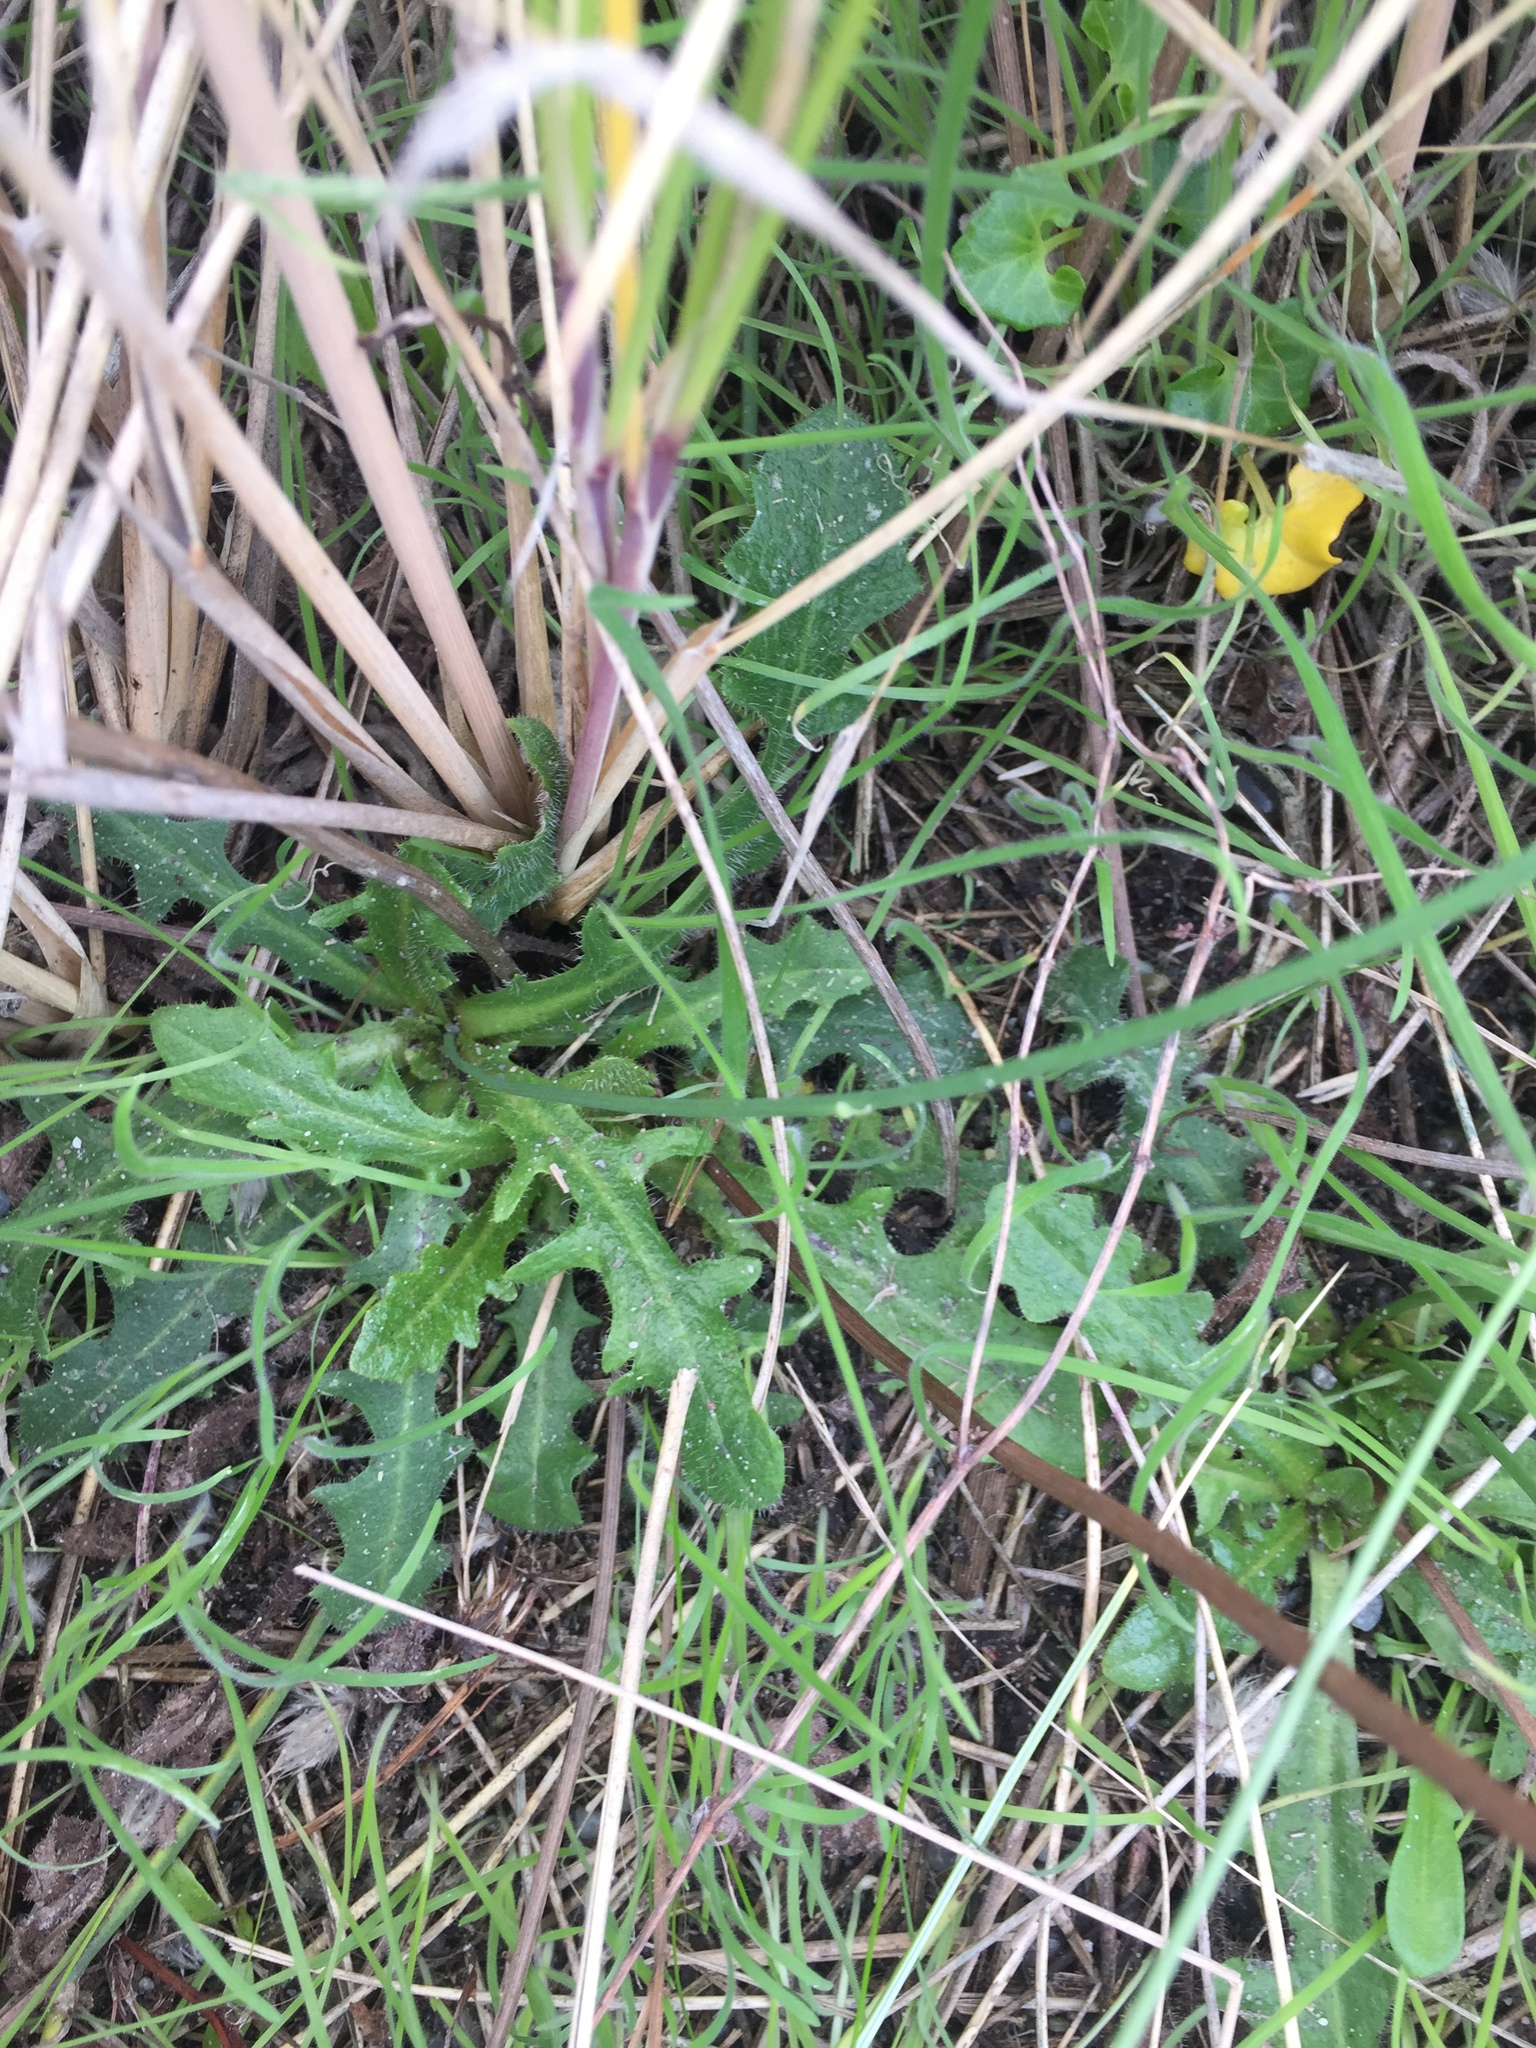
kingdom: Plantae
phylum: Tracheophyta
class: Magnoliopsida
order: Asterales
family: Asteraceae
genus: Hypochaeris
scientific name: Hypochaeris radicata
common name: Flatweed
